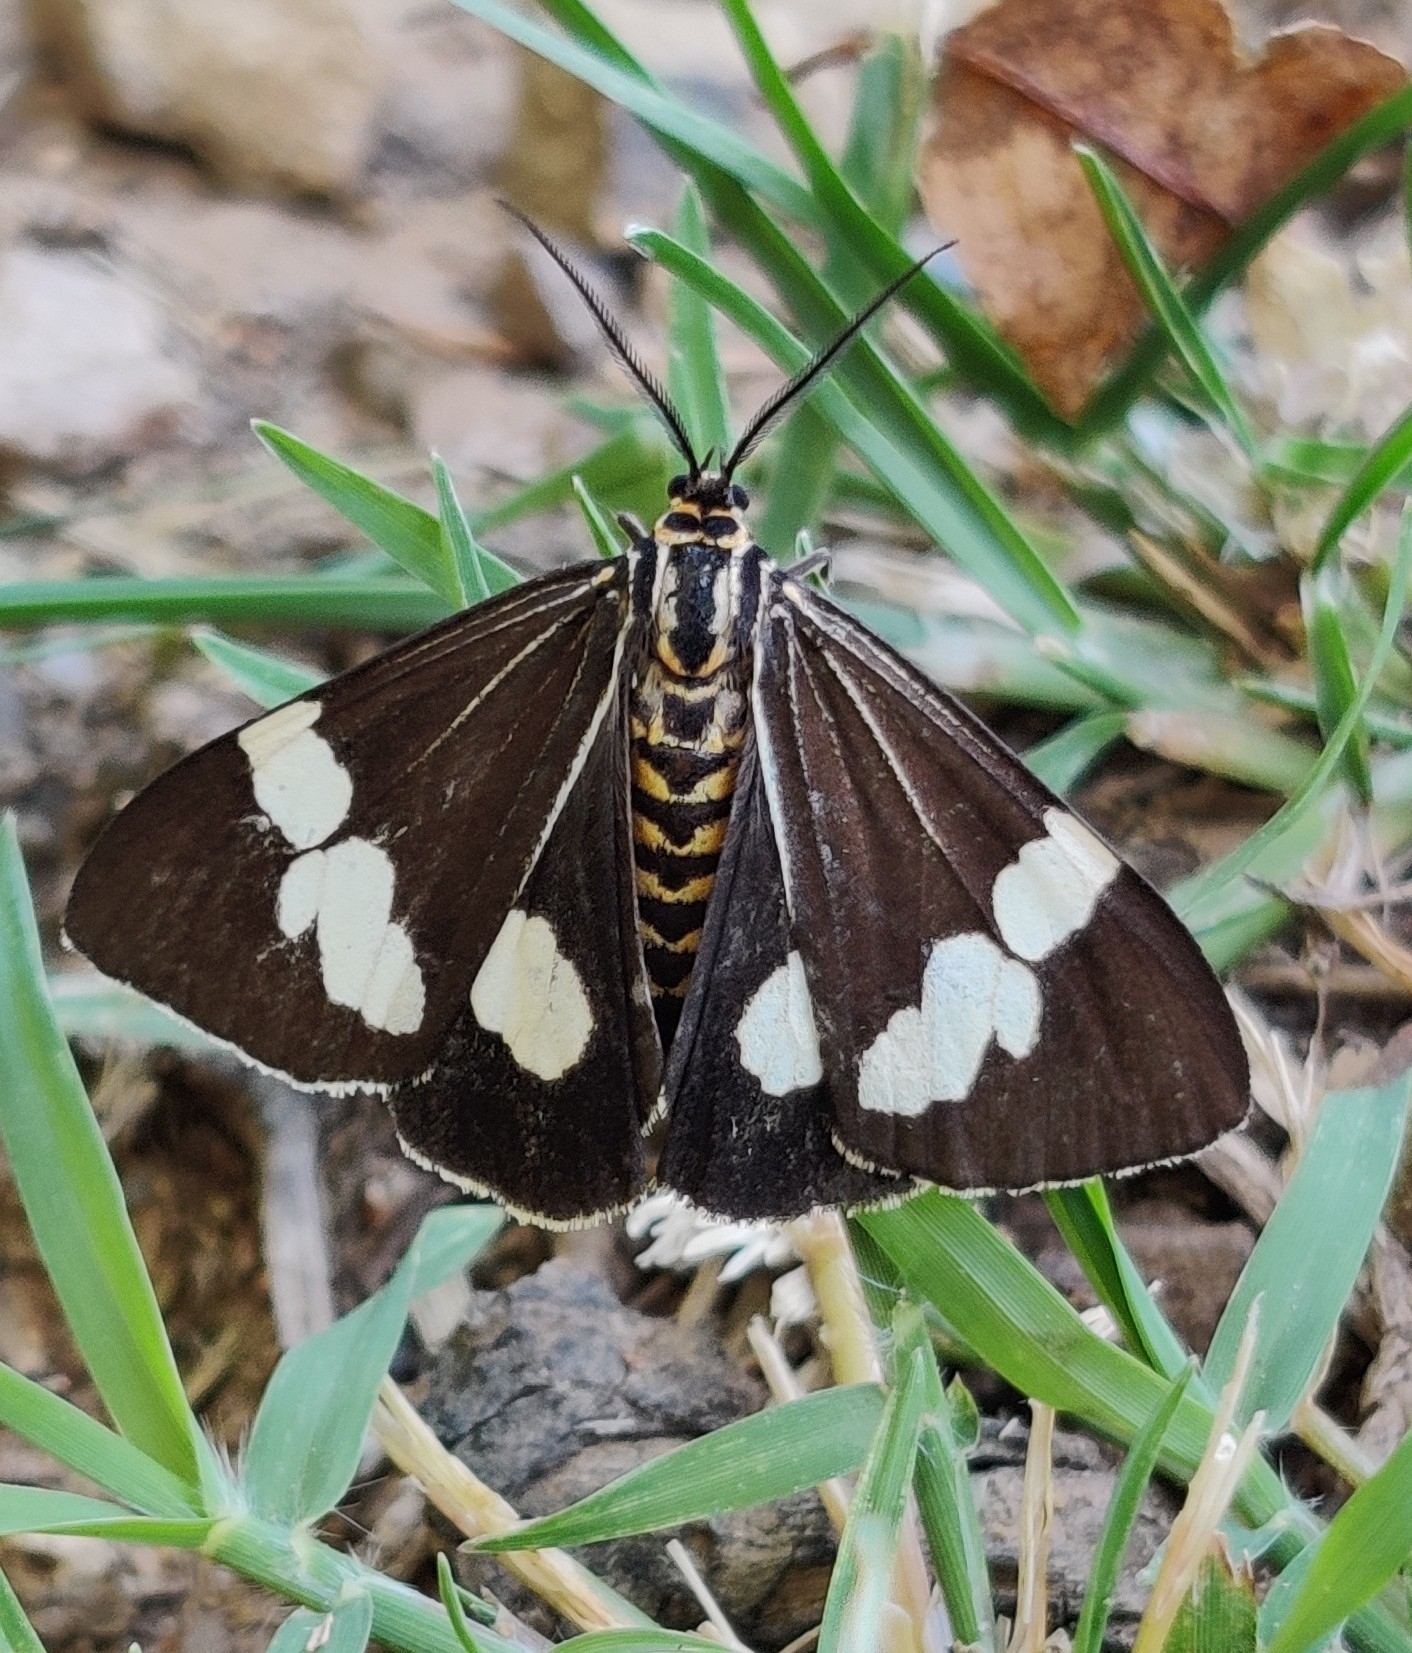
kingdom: Animalia
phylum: Arthropoda
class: Insecta
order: Lepidoptera
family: Erebidae
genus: Nyctemera
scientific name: Nyctemera amicus
